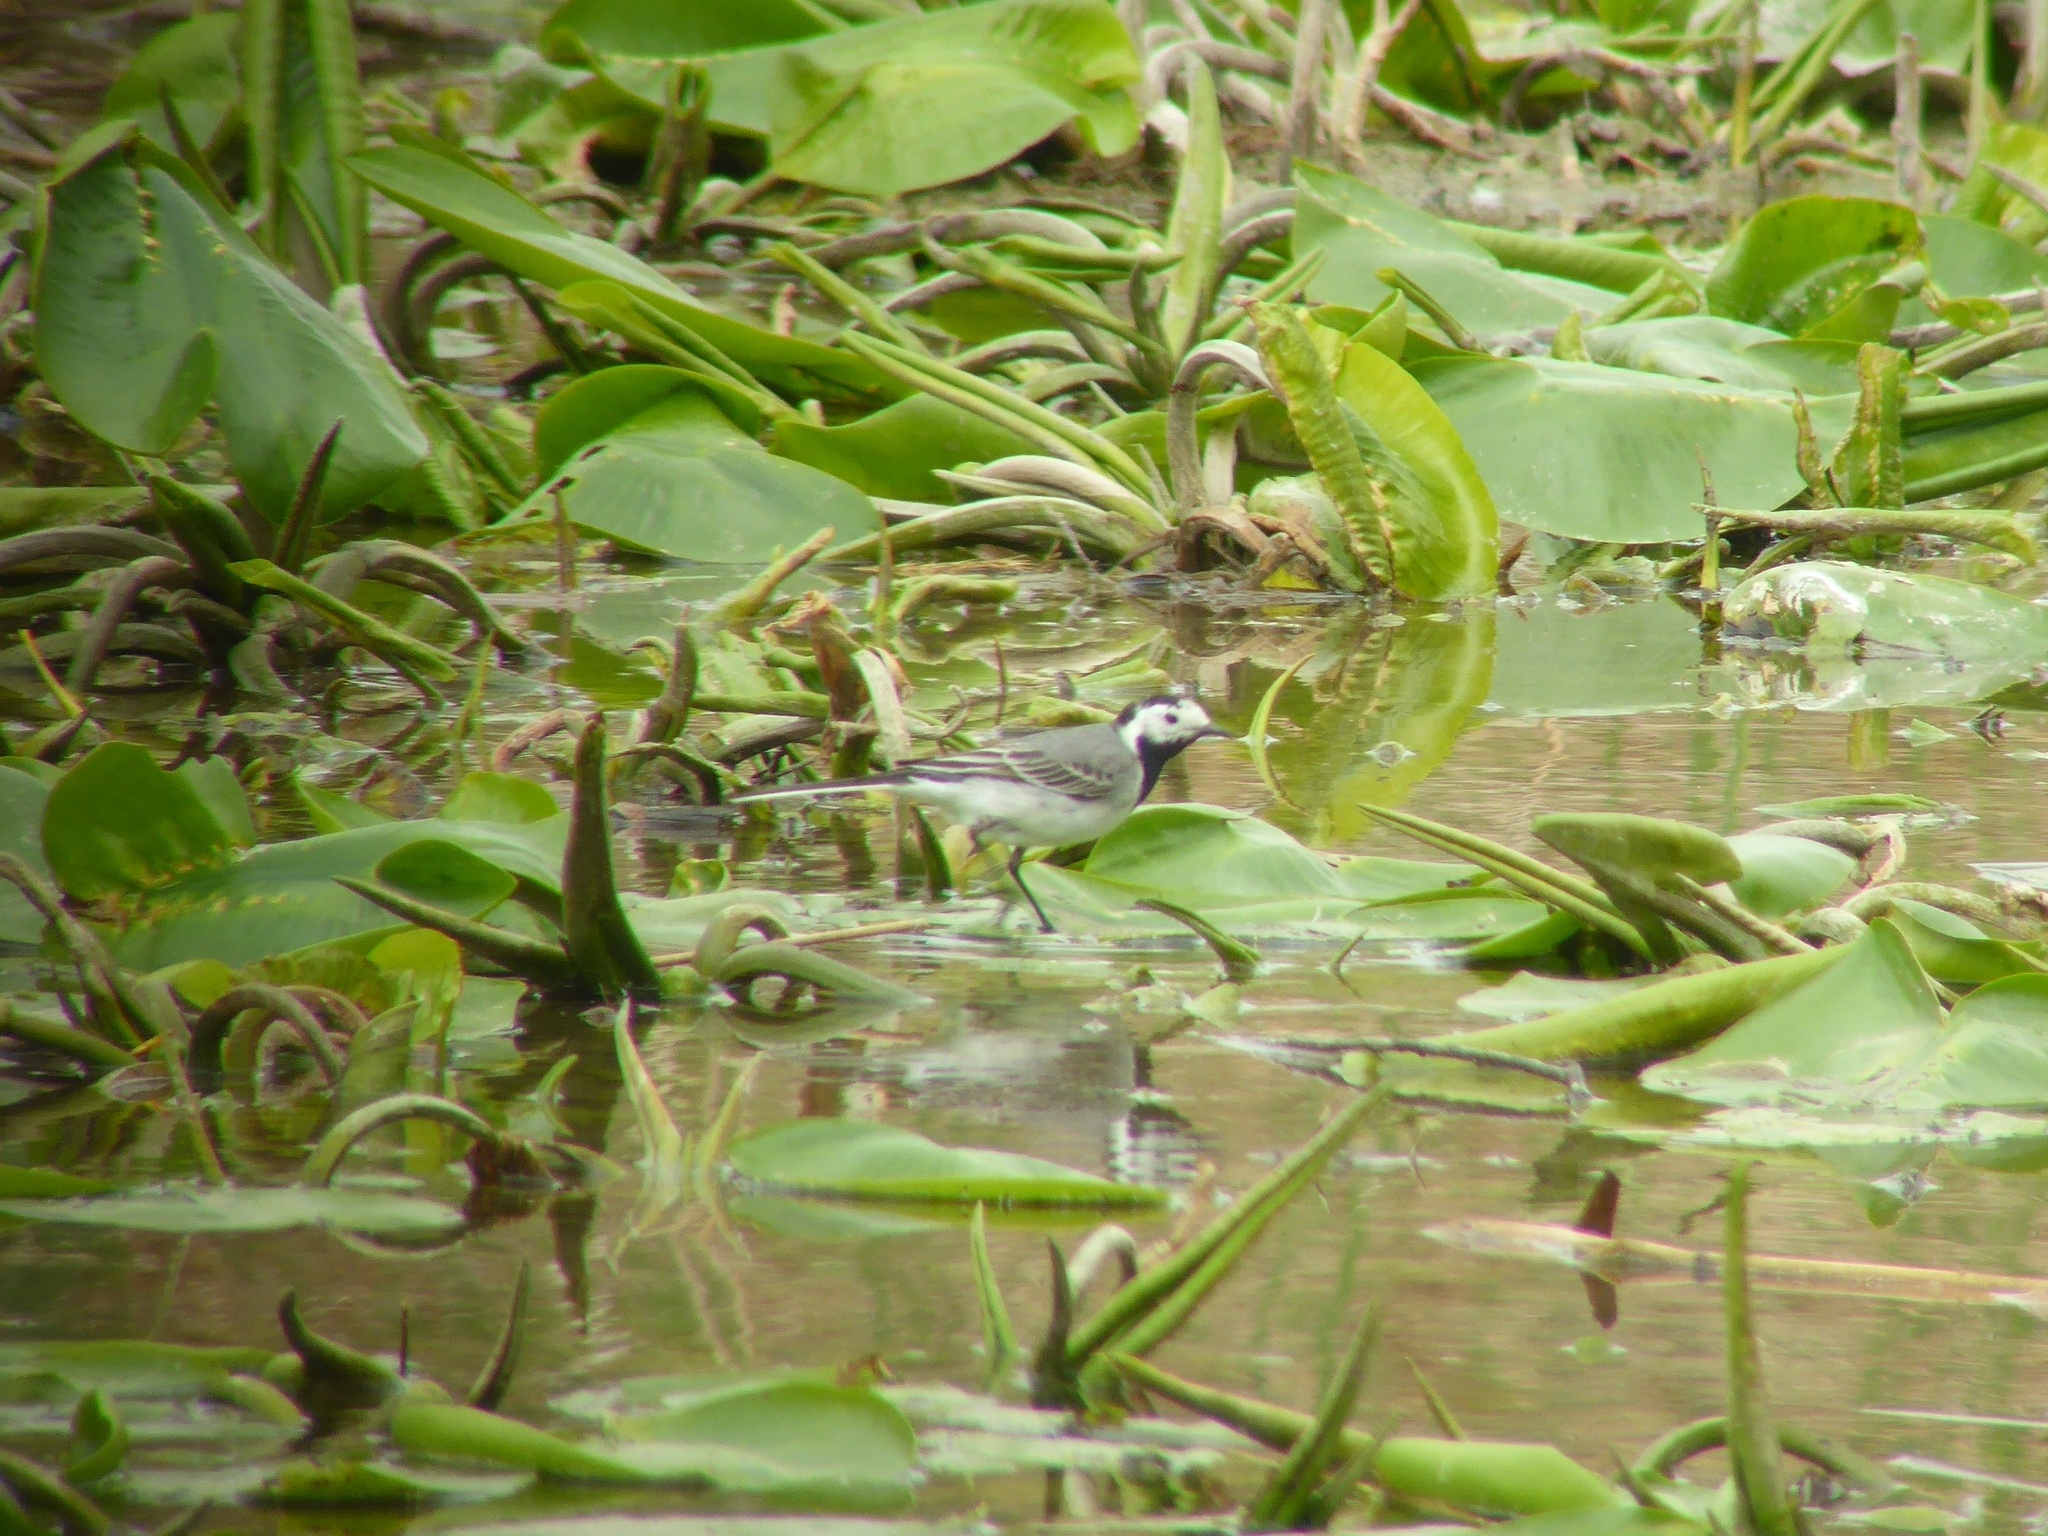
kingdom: Animalia
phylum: Chordata
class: Aves
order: Passeriformes
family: Motacillidae
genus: Motacilla
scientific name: Motacilla alba
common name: White wagtail
